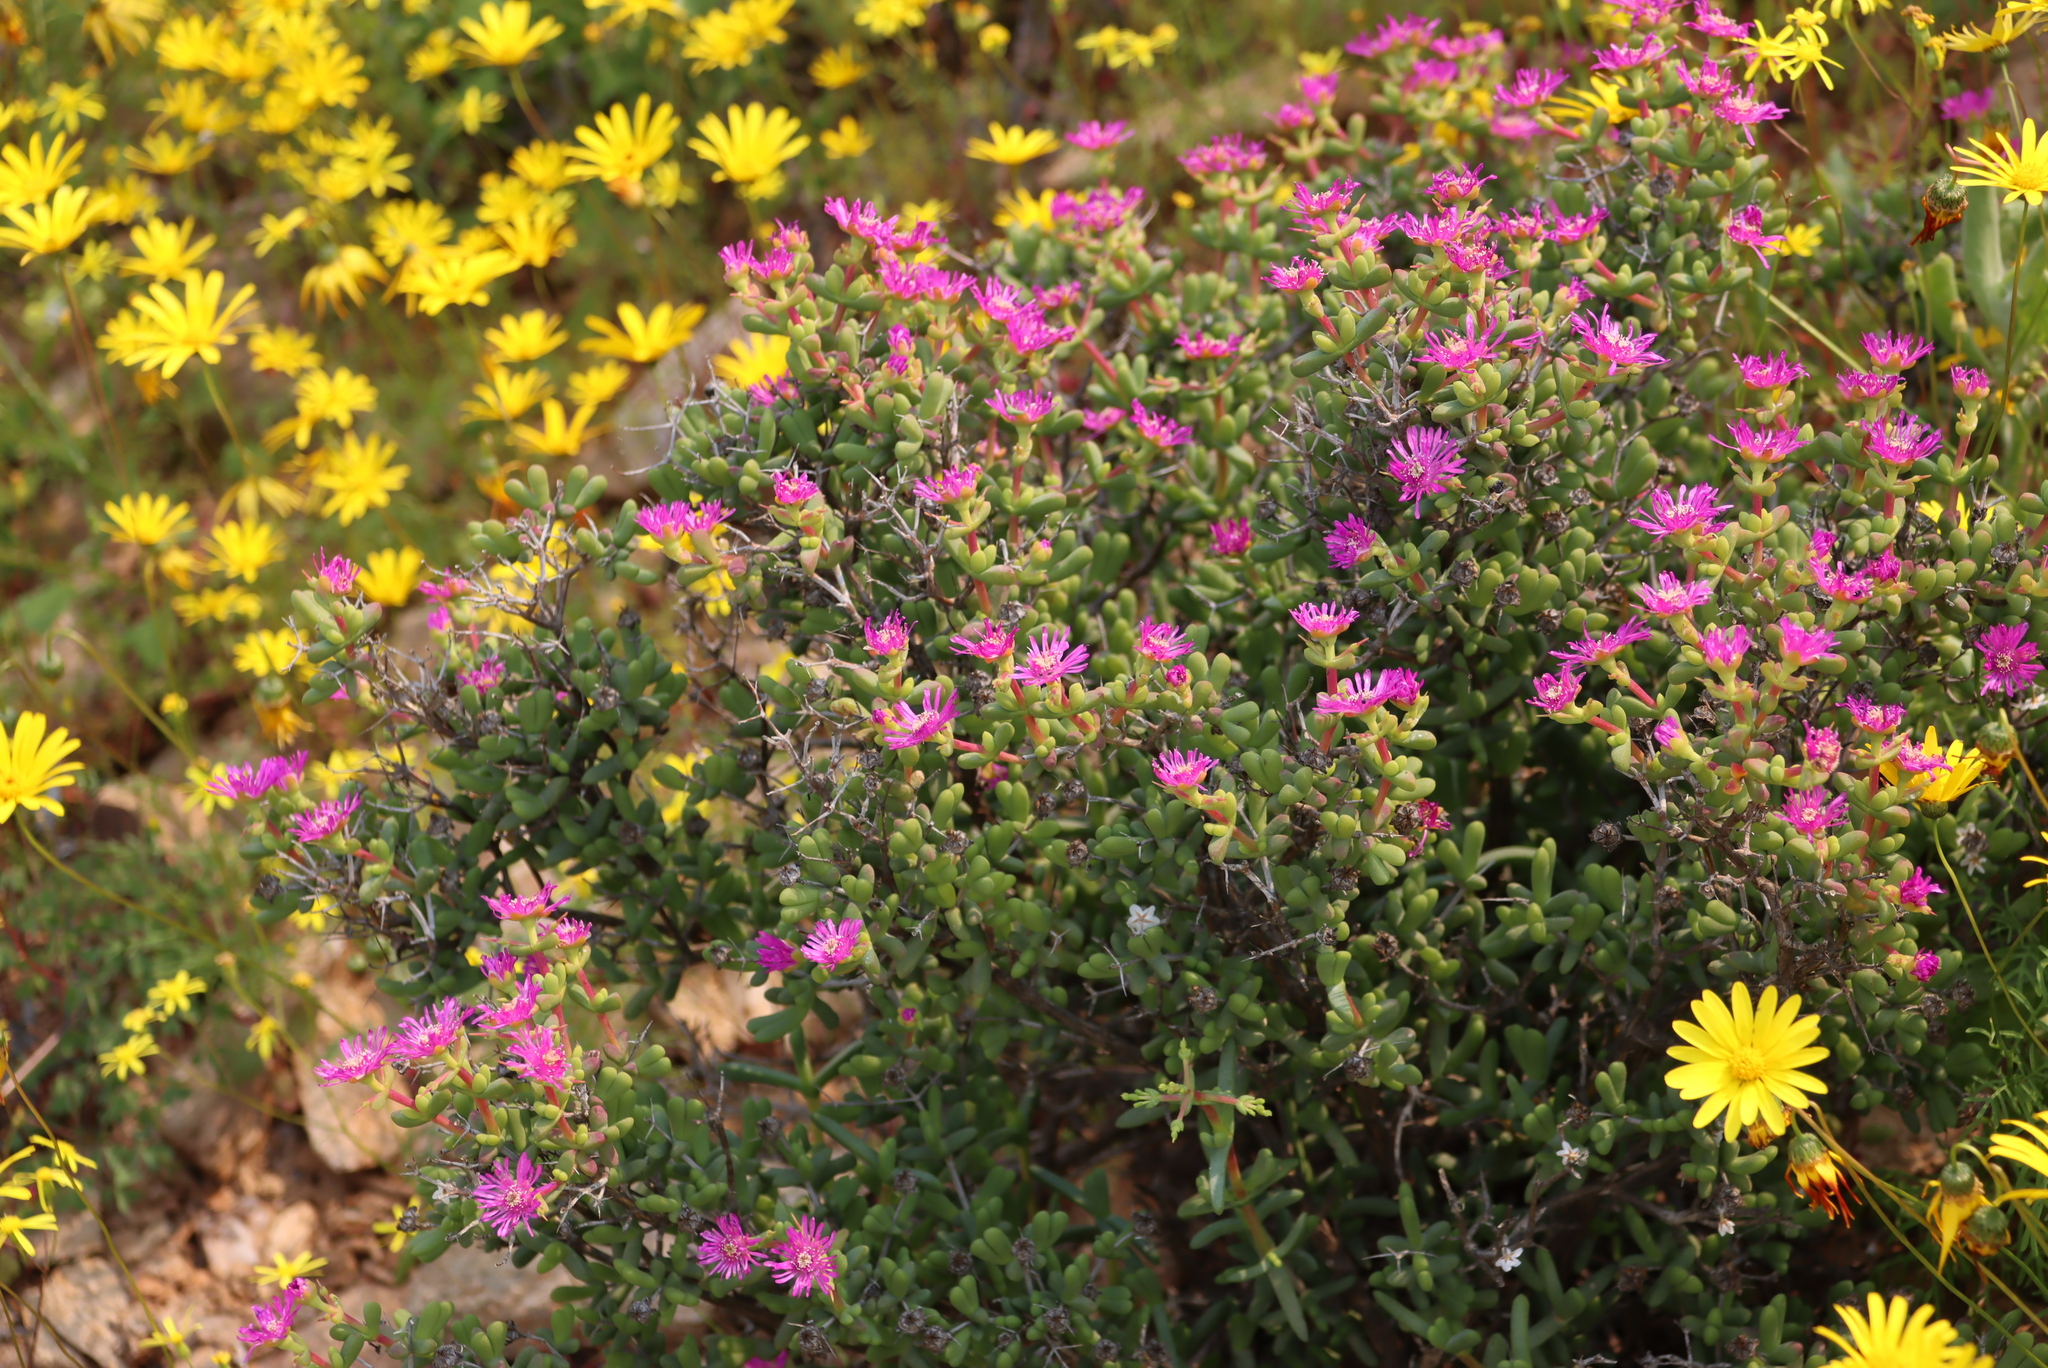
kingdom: Plantae
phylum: Tracheophyta
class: Magnoliopsida
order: Caryophyllales
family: Aizoaceae
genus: Eberlanzia
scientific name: Eberlanzia clausa
